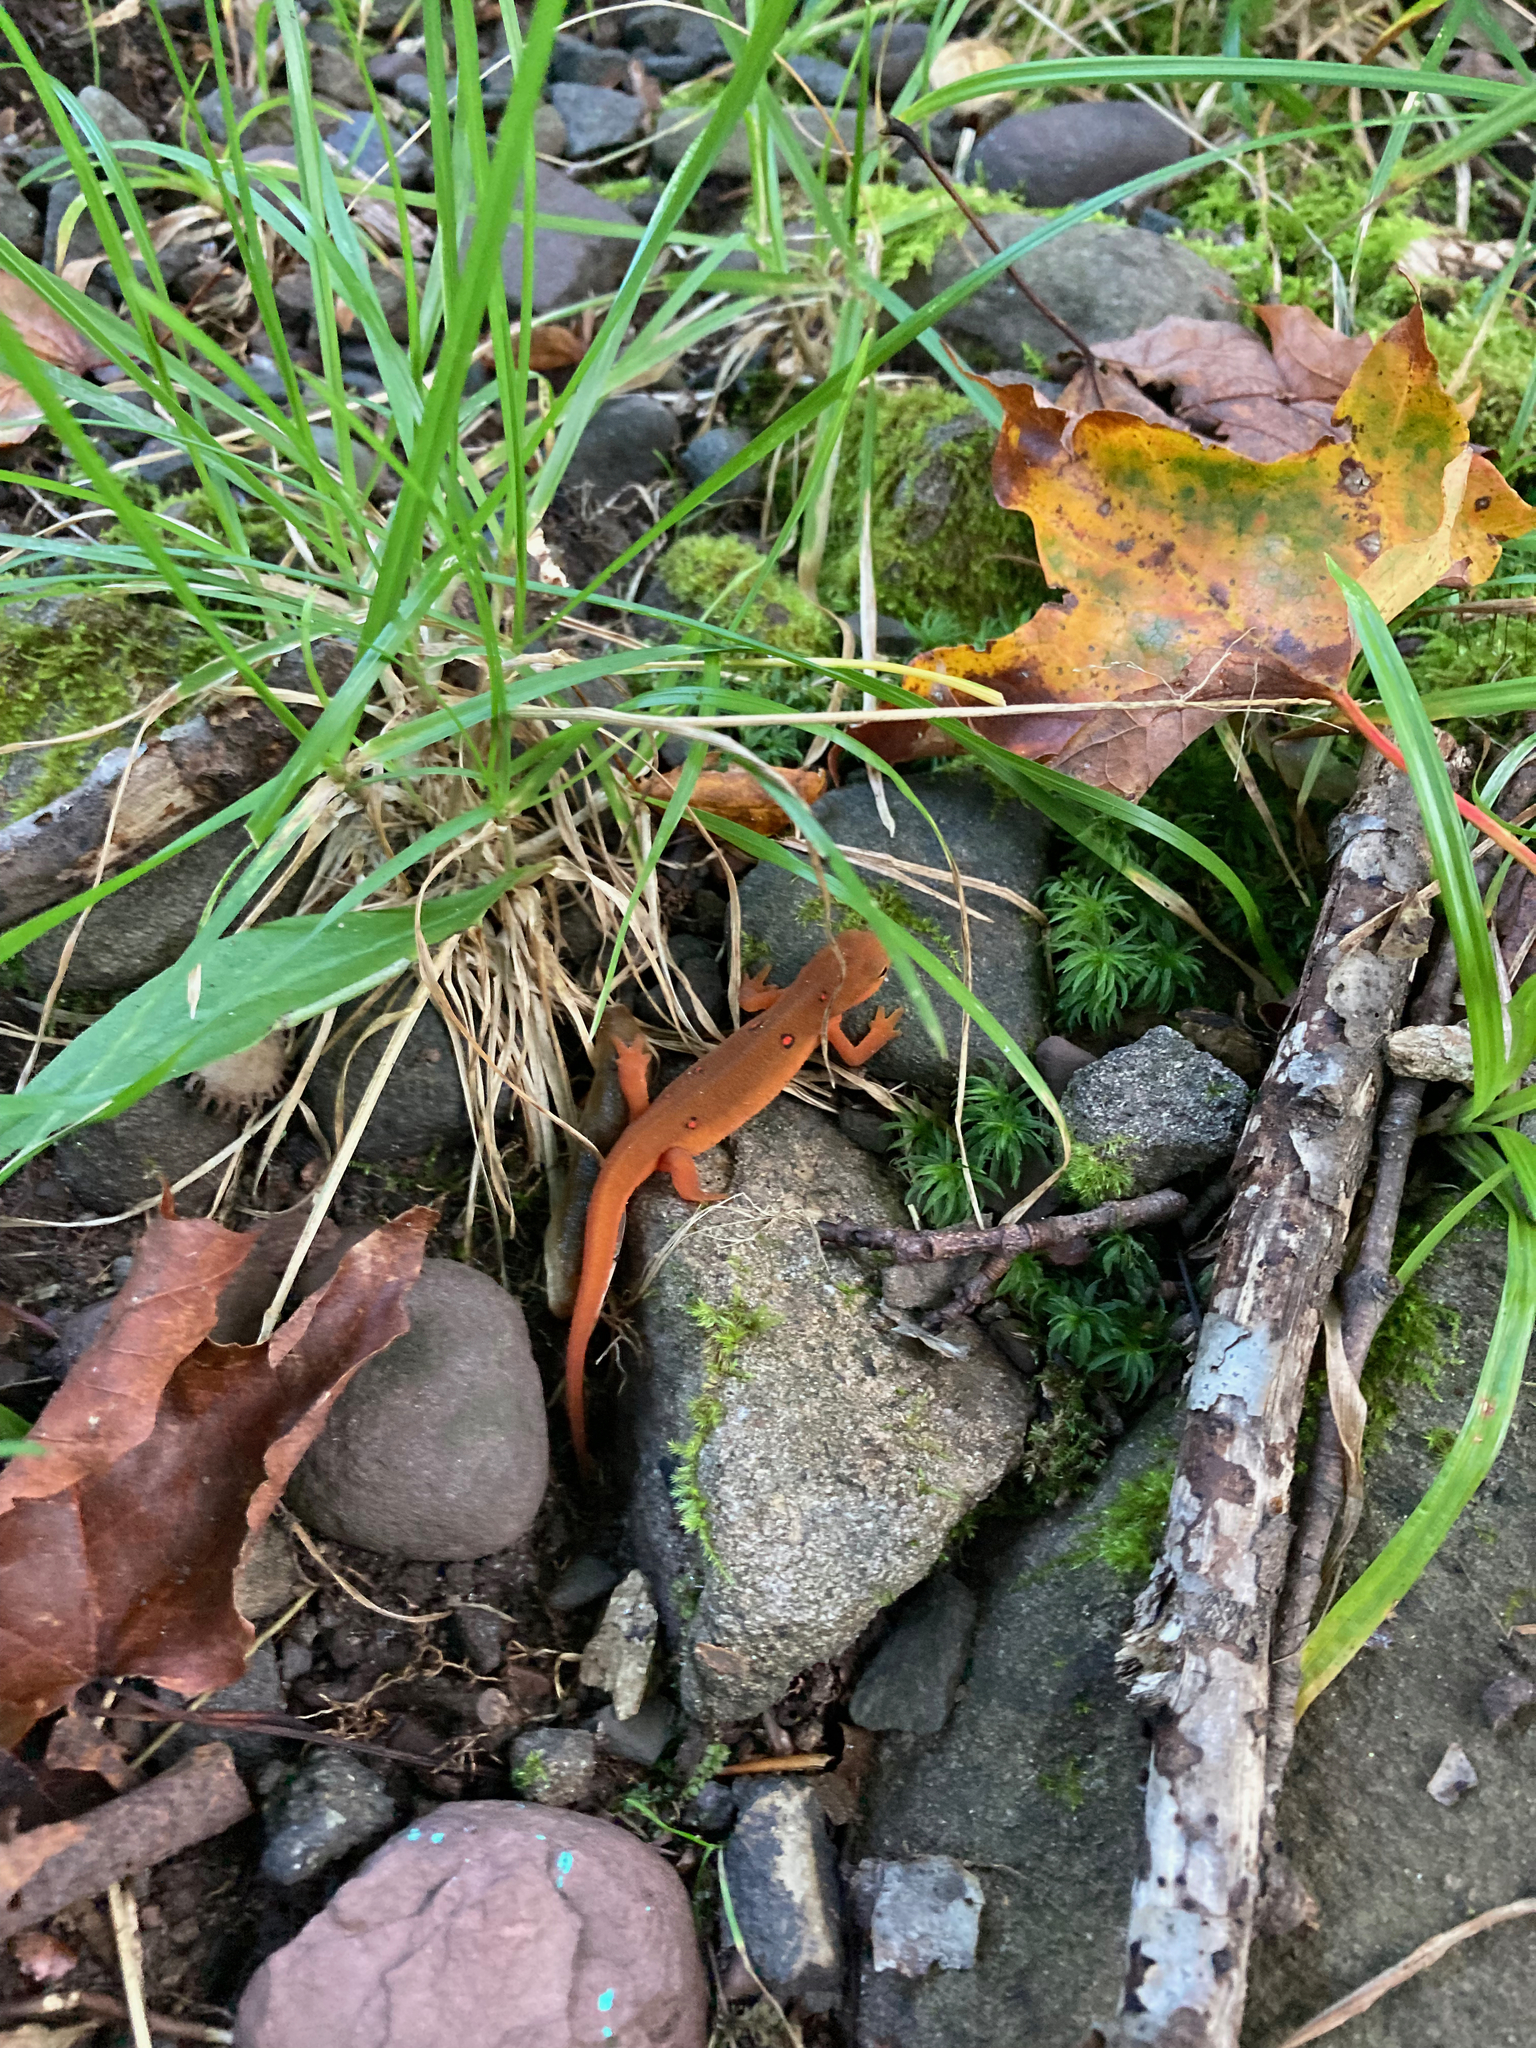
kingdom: Animalia
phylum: Chordata
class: Amphibia
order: Caudata
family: Salamandridae
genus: Notophthalmus
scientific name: Notophthalmus viridescens
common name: Eastern newt
